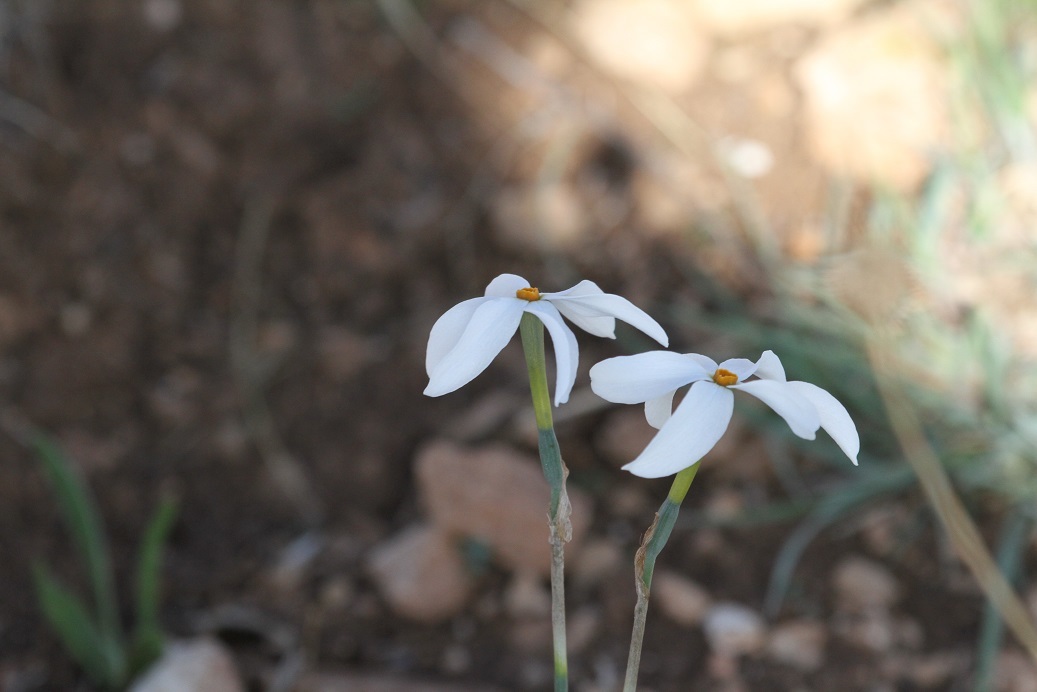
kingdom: Plantae
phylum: Tracheophyta
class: Liliopsida
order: Asparagales
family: Amaryllidaceae
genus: Narcissus
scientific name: Narcissus deficiens
